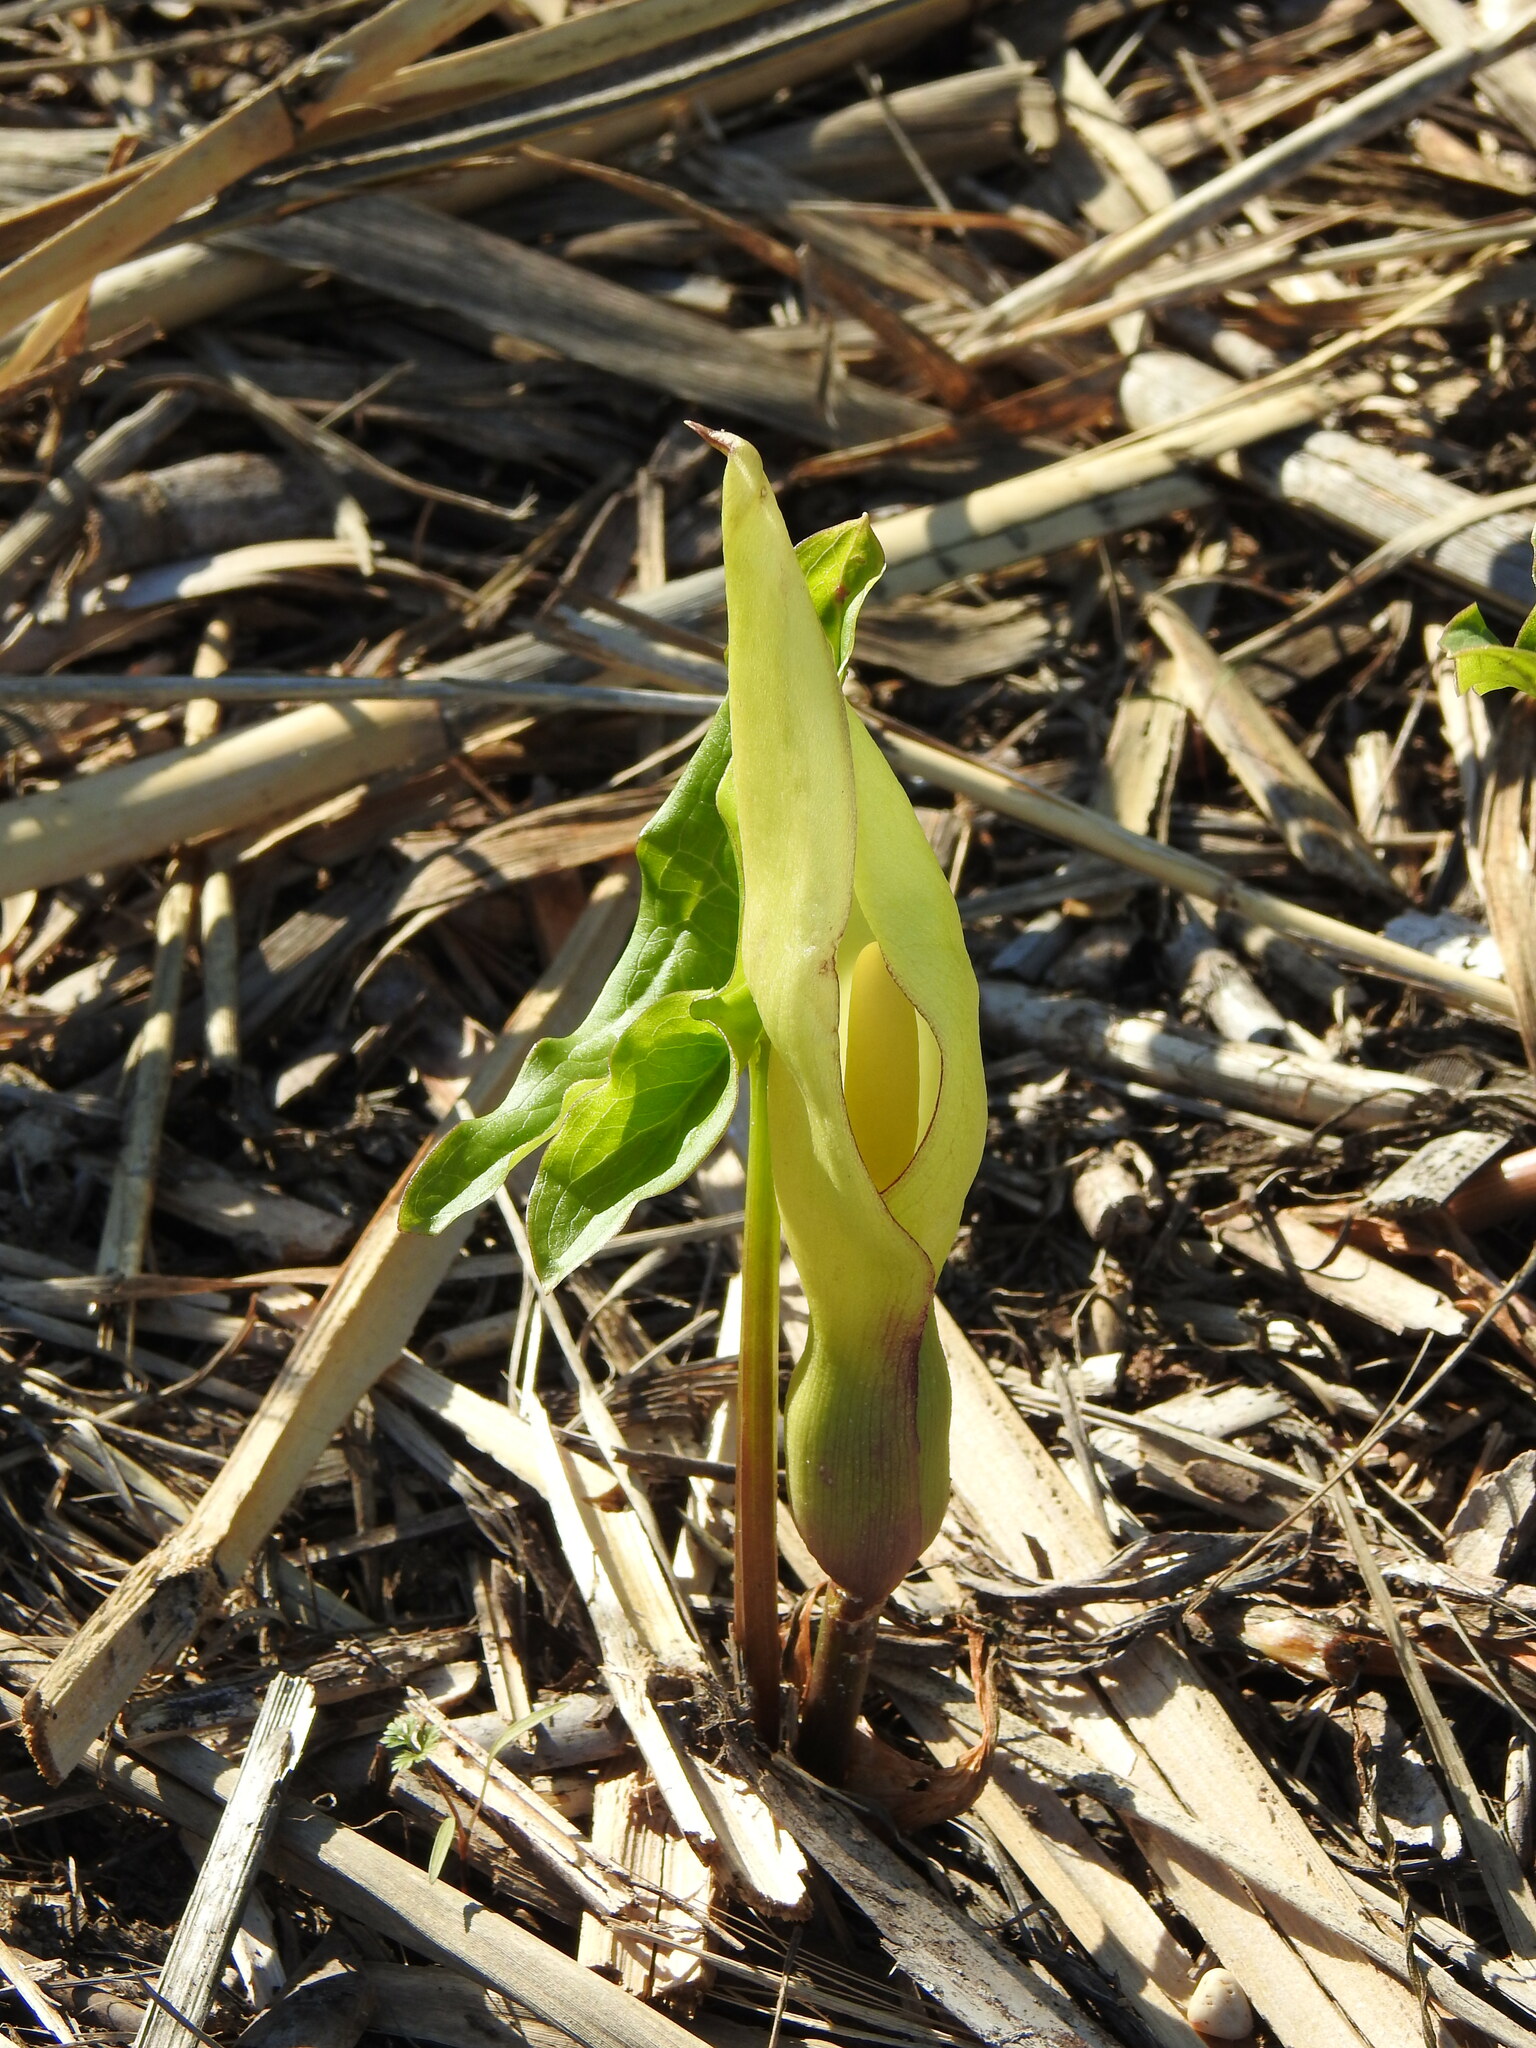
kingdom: Plantae
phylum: Tracheophyta
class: Liliopsida
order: Alismatales
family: Araceae
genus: Arum
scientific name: Arum italicum
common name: Italian lords-and-ladies
